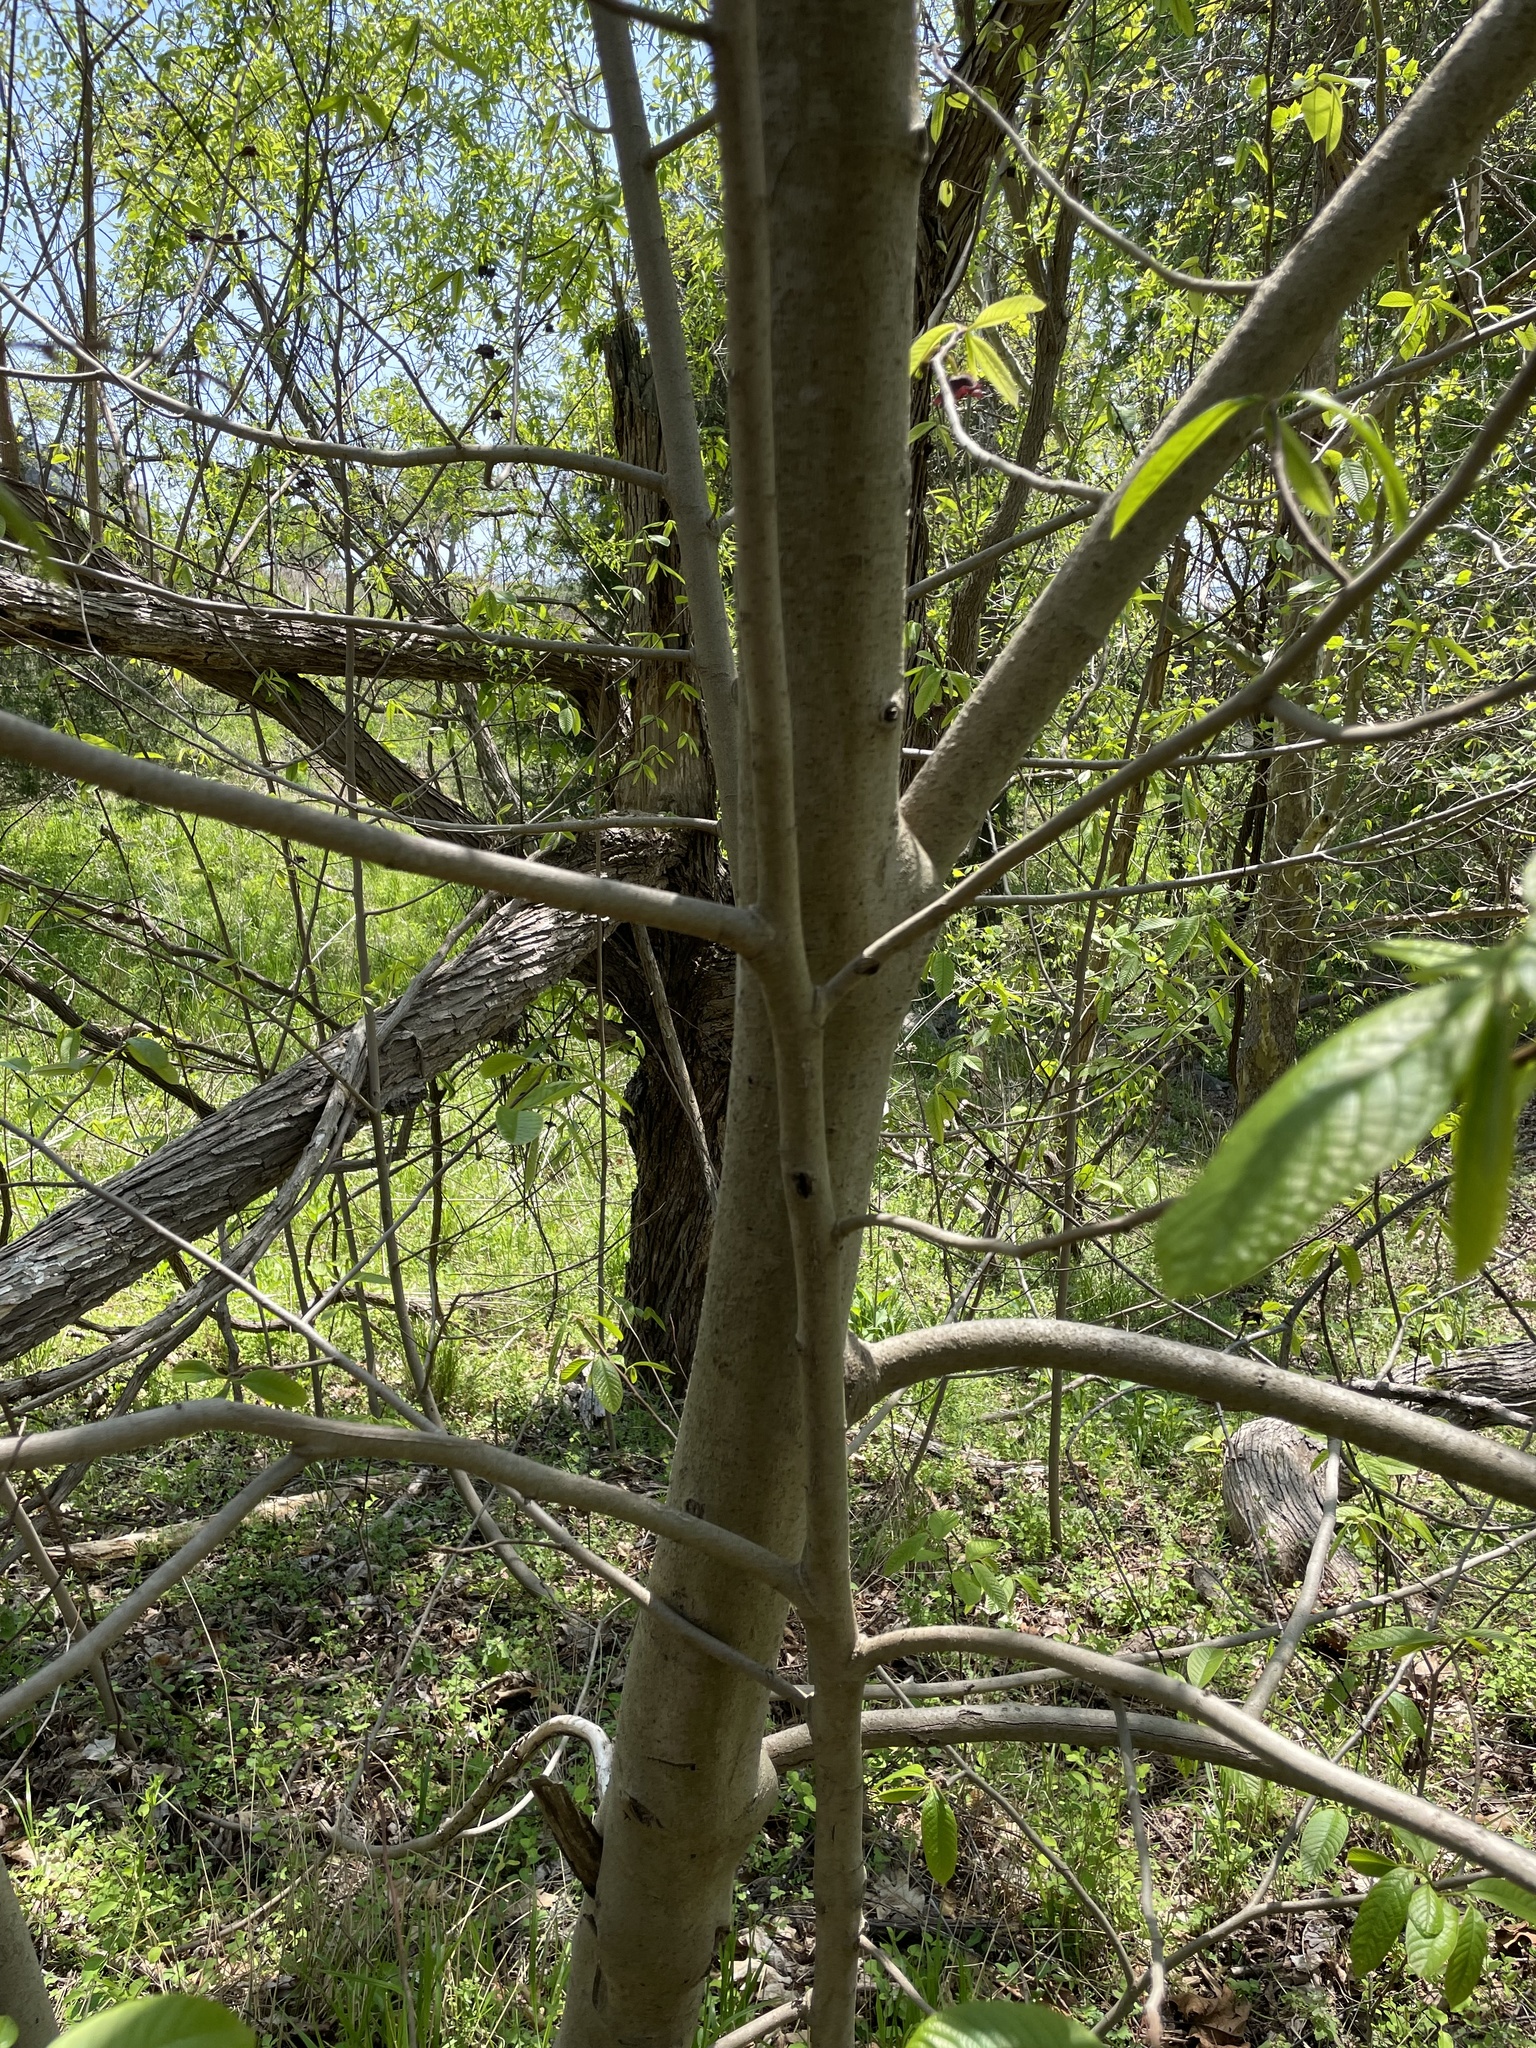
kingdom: Plantae
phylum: Tracheophyta
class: Magnoliopsida
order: Magnoliales
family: Annonaceae
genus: Asimina
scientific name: Asimina triloba
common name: Dog-banana
